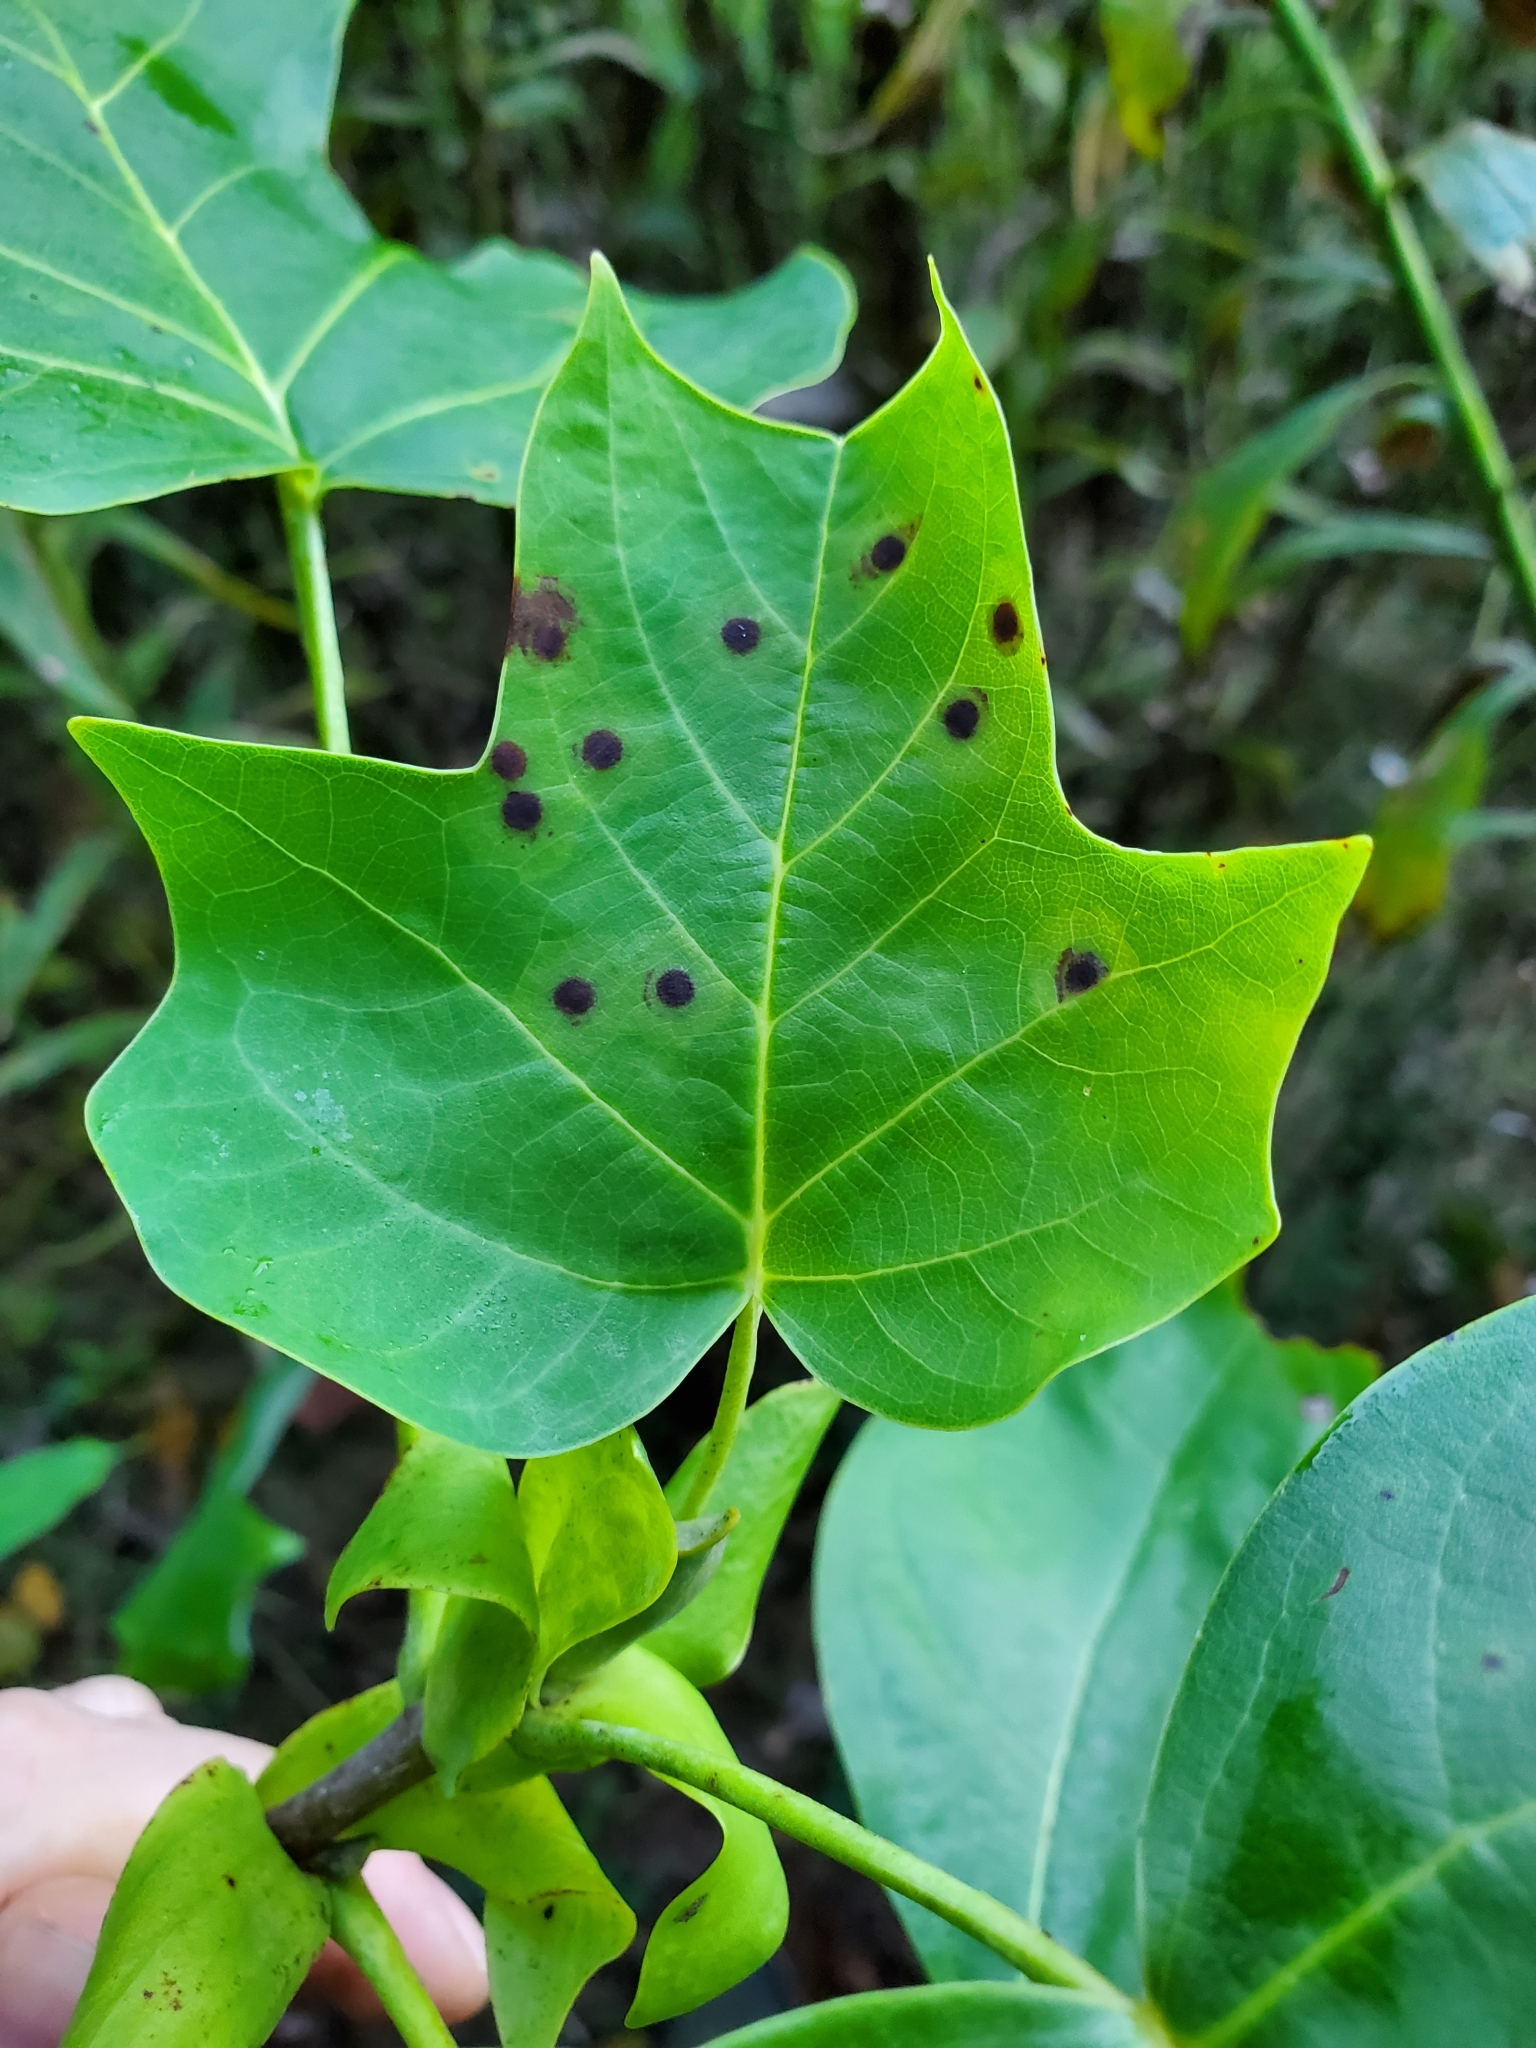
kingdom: Animalia
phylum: Arthropoda
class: Insecta
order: Diptera
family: Cecidomyiidae
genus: Resseliella
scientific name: Resseliella liriodendri
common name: Tulip tree leaf spot gall midge
